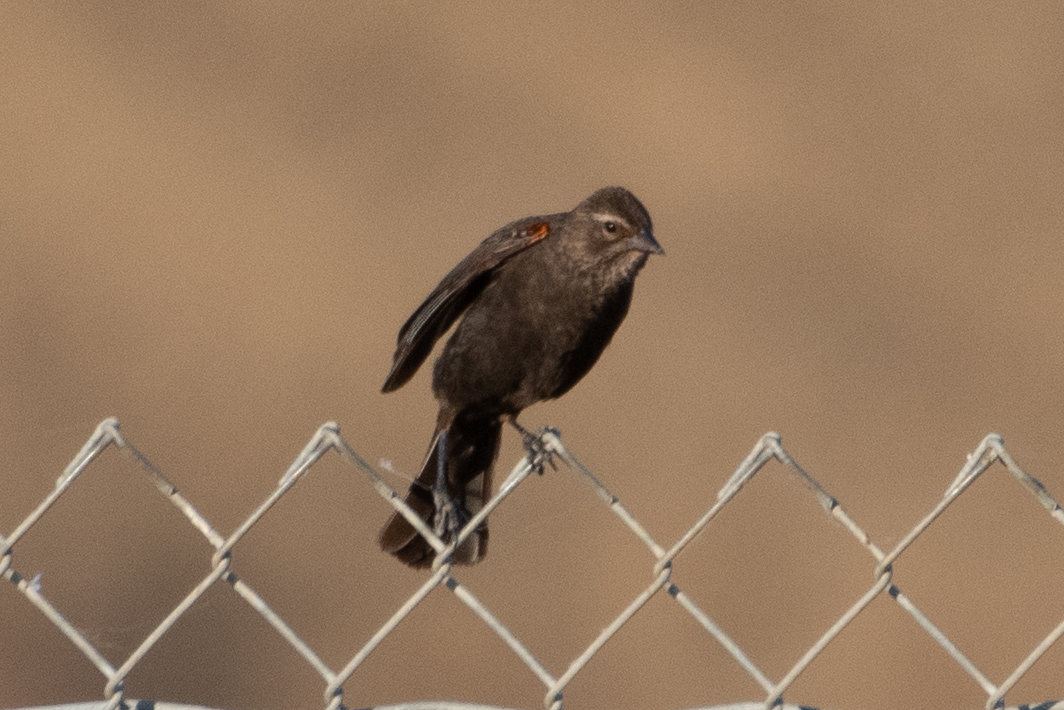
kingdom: Animalia
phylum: Chordata
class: Aves
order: Passeriformes
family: Icteridae
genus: Agelaius
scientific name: Agelaius phoeniceus
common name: Red-winged blackbird
